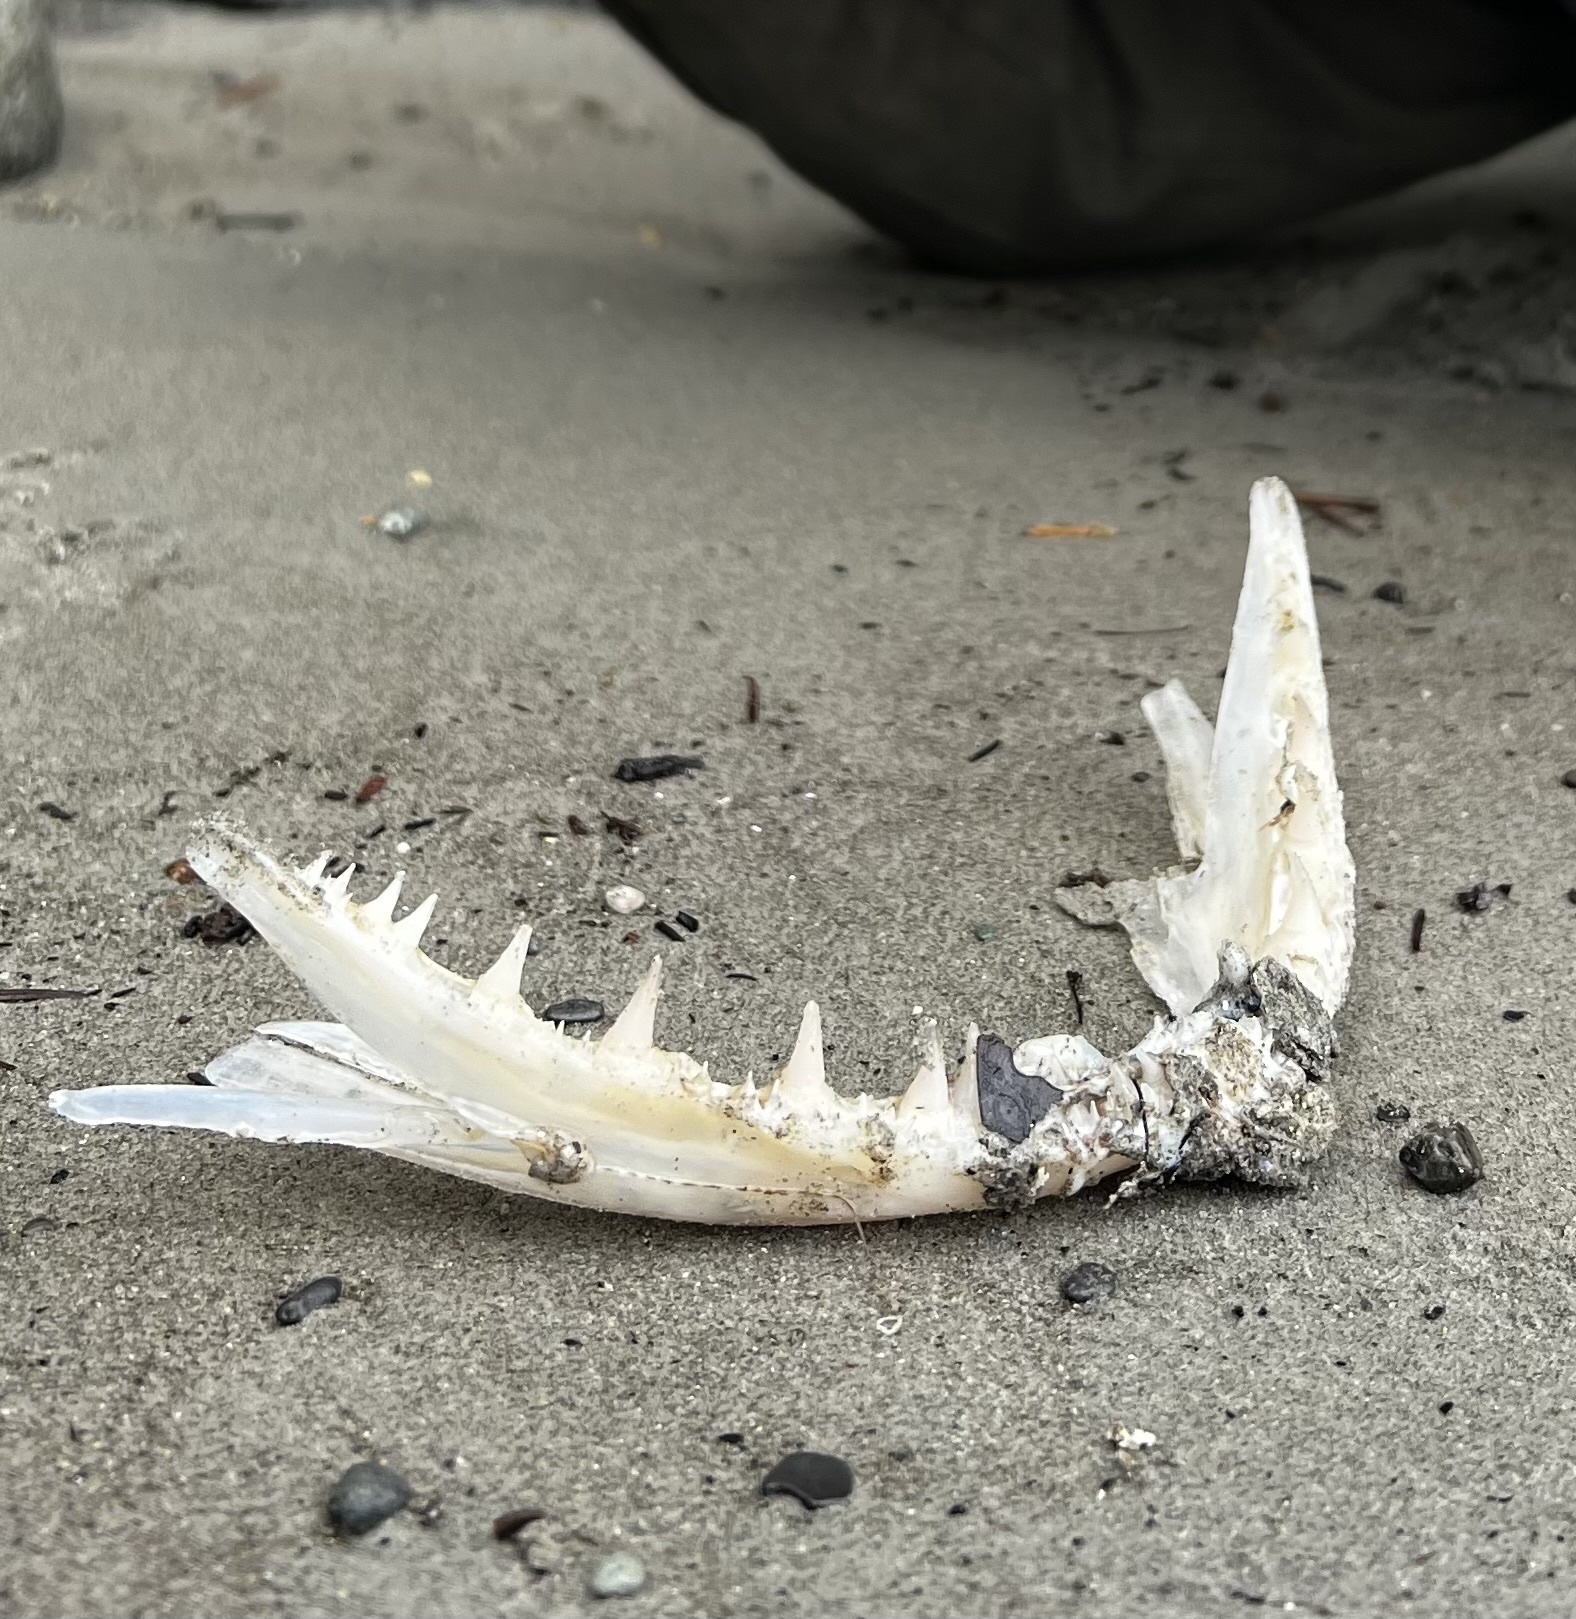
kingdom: Animalia
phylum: Chordata
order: Scorpaeniformes
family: Hexagrammidae
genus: Ophiodon
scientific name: Ophiodon elongatus
